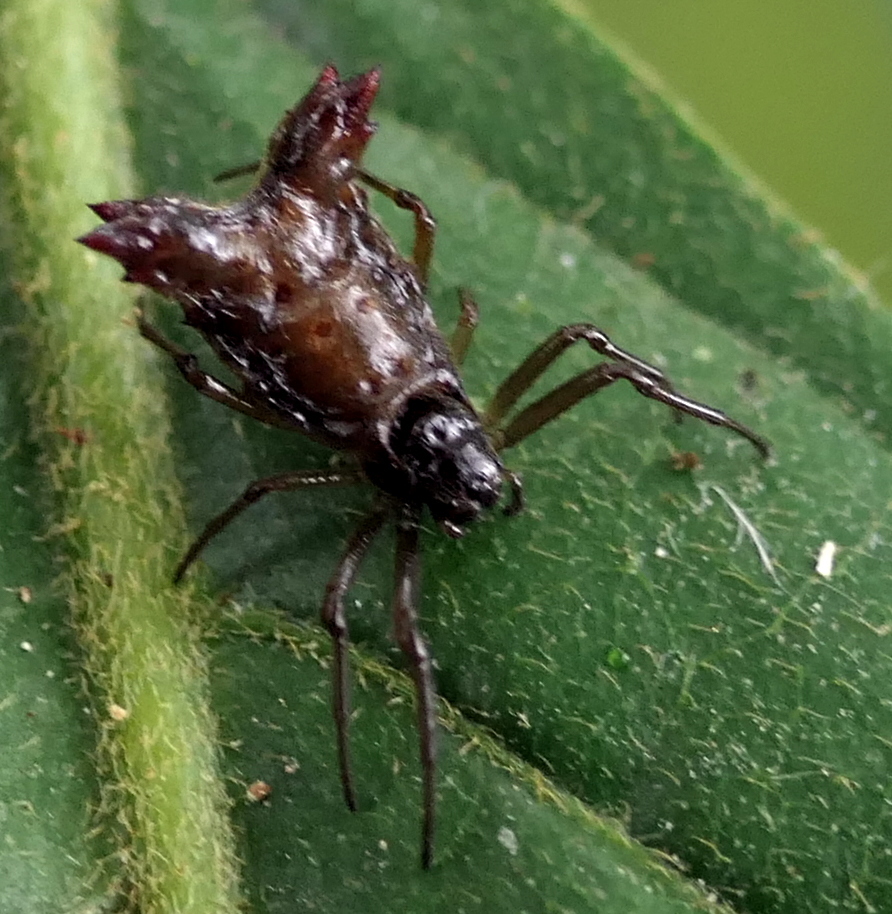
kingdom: Animalia
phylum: Arthropoda
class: Arachnida
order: Araneae
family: Araneidae
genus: Micrathena
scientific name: Micrathena plana
